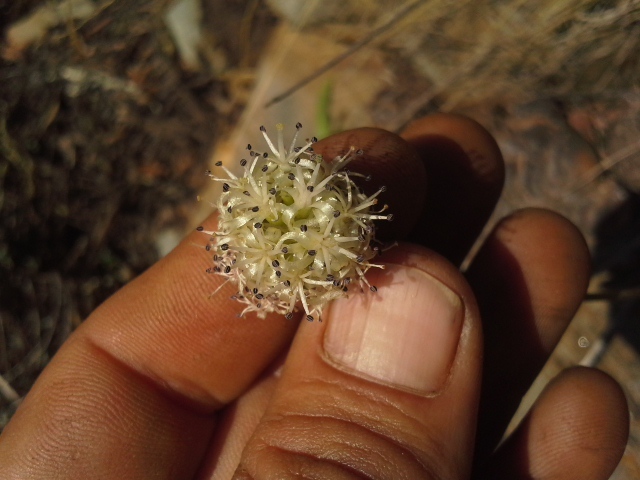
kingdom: Plantae
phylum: Tracheophyta
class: Liliopsida
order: Asparagales
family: Asparagaceae
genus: Drimia
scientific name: Drimia sphaerocephala
